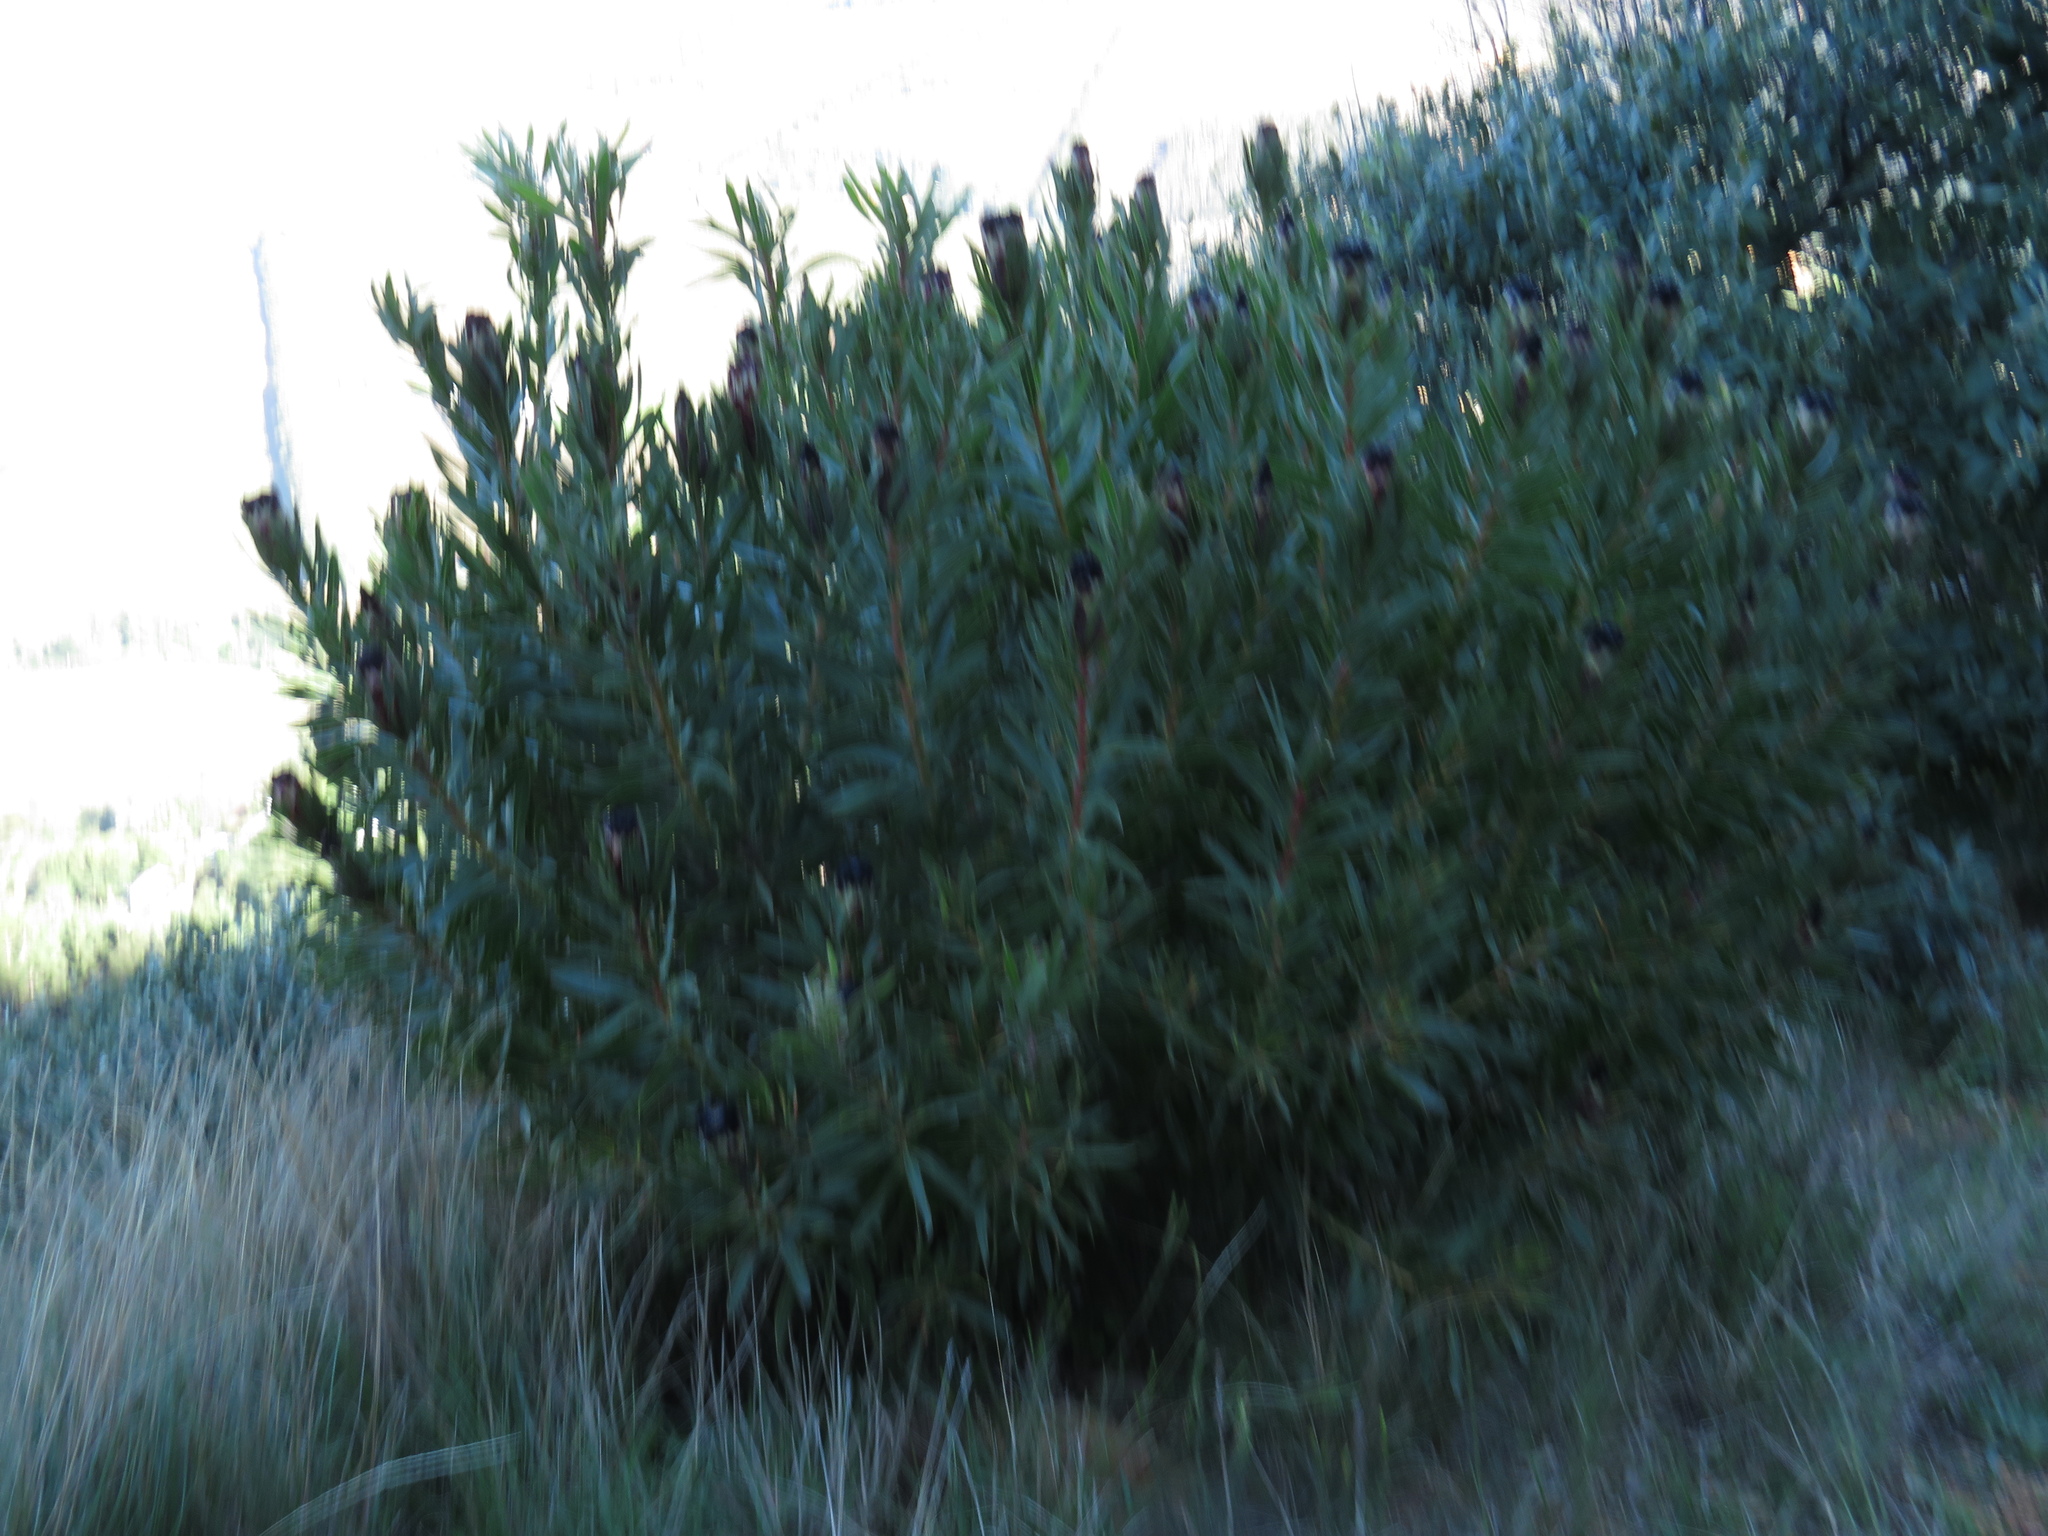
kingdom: Plantae
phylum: Tracheophyta
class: Magnoliopsida
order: Proteales
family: Proteaceae
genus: Protea
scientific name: Protea lepidocarpodendron
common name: Black-bearded protea
